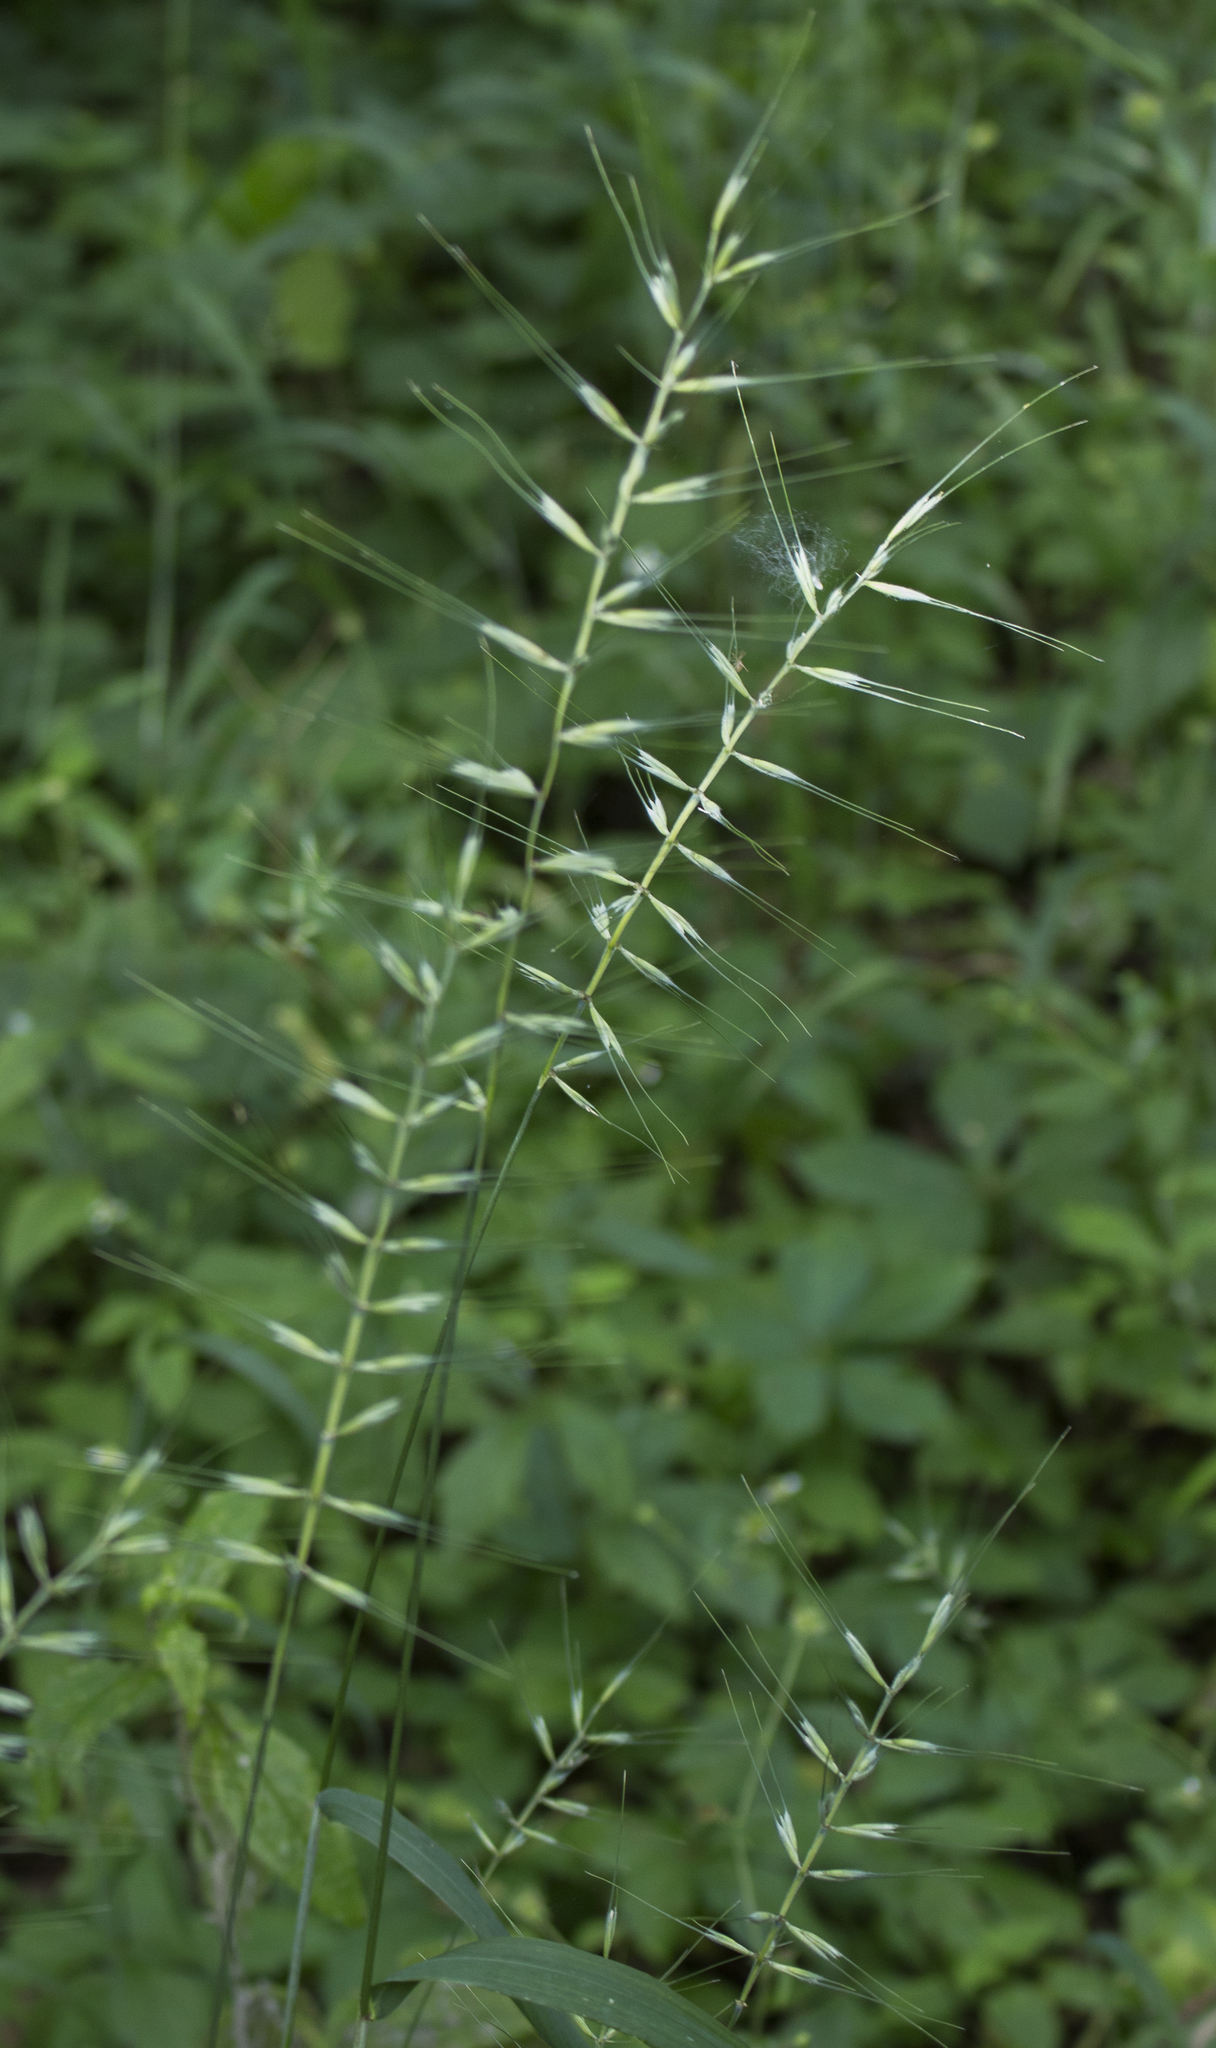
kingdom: Plantae
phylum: Tracheophyta
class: Liliopsida
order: Poales
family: Poaceae
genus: Elymus
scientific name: Elymus hystrix
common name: Bottlebrush grass
